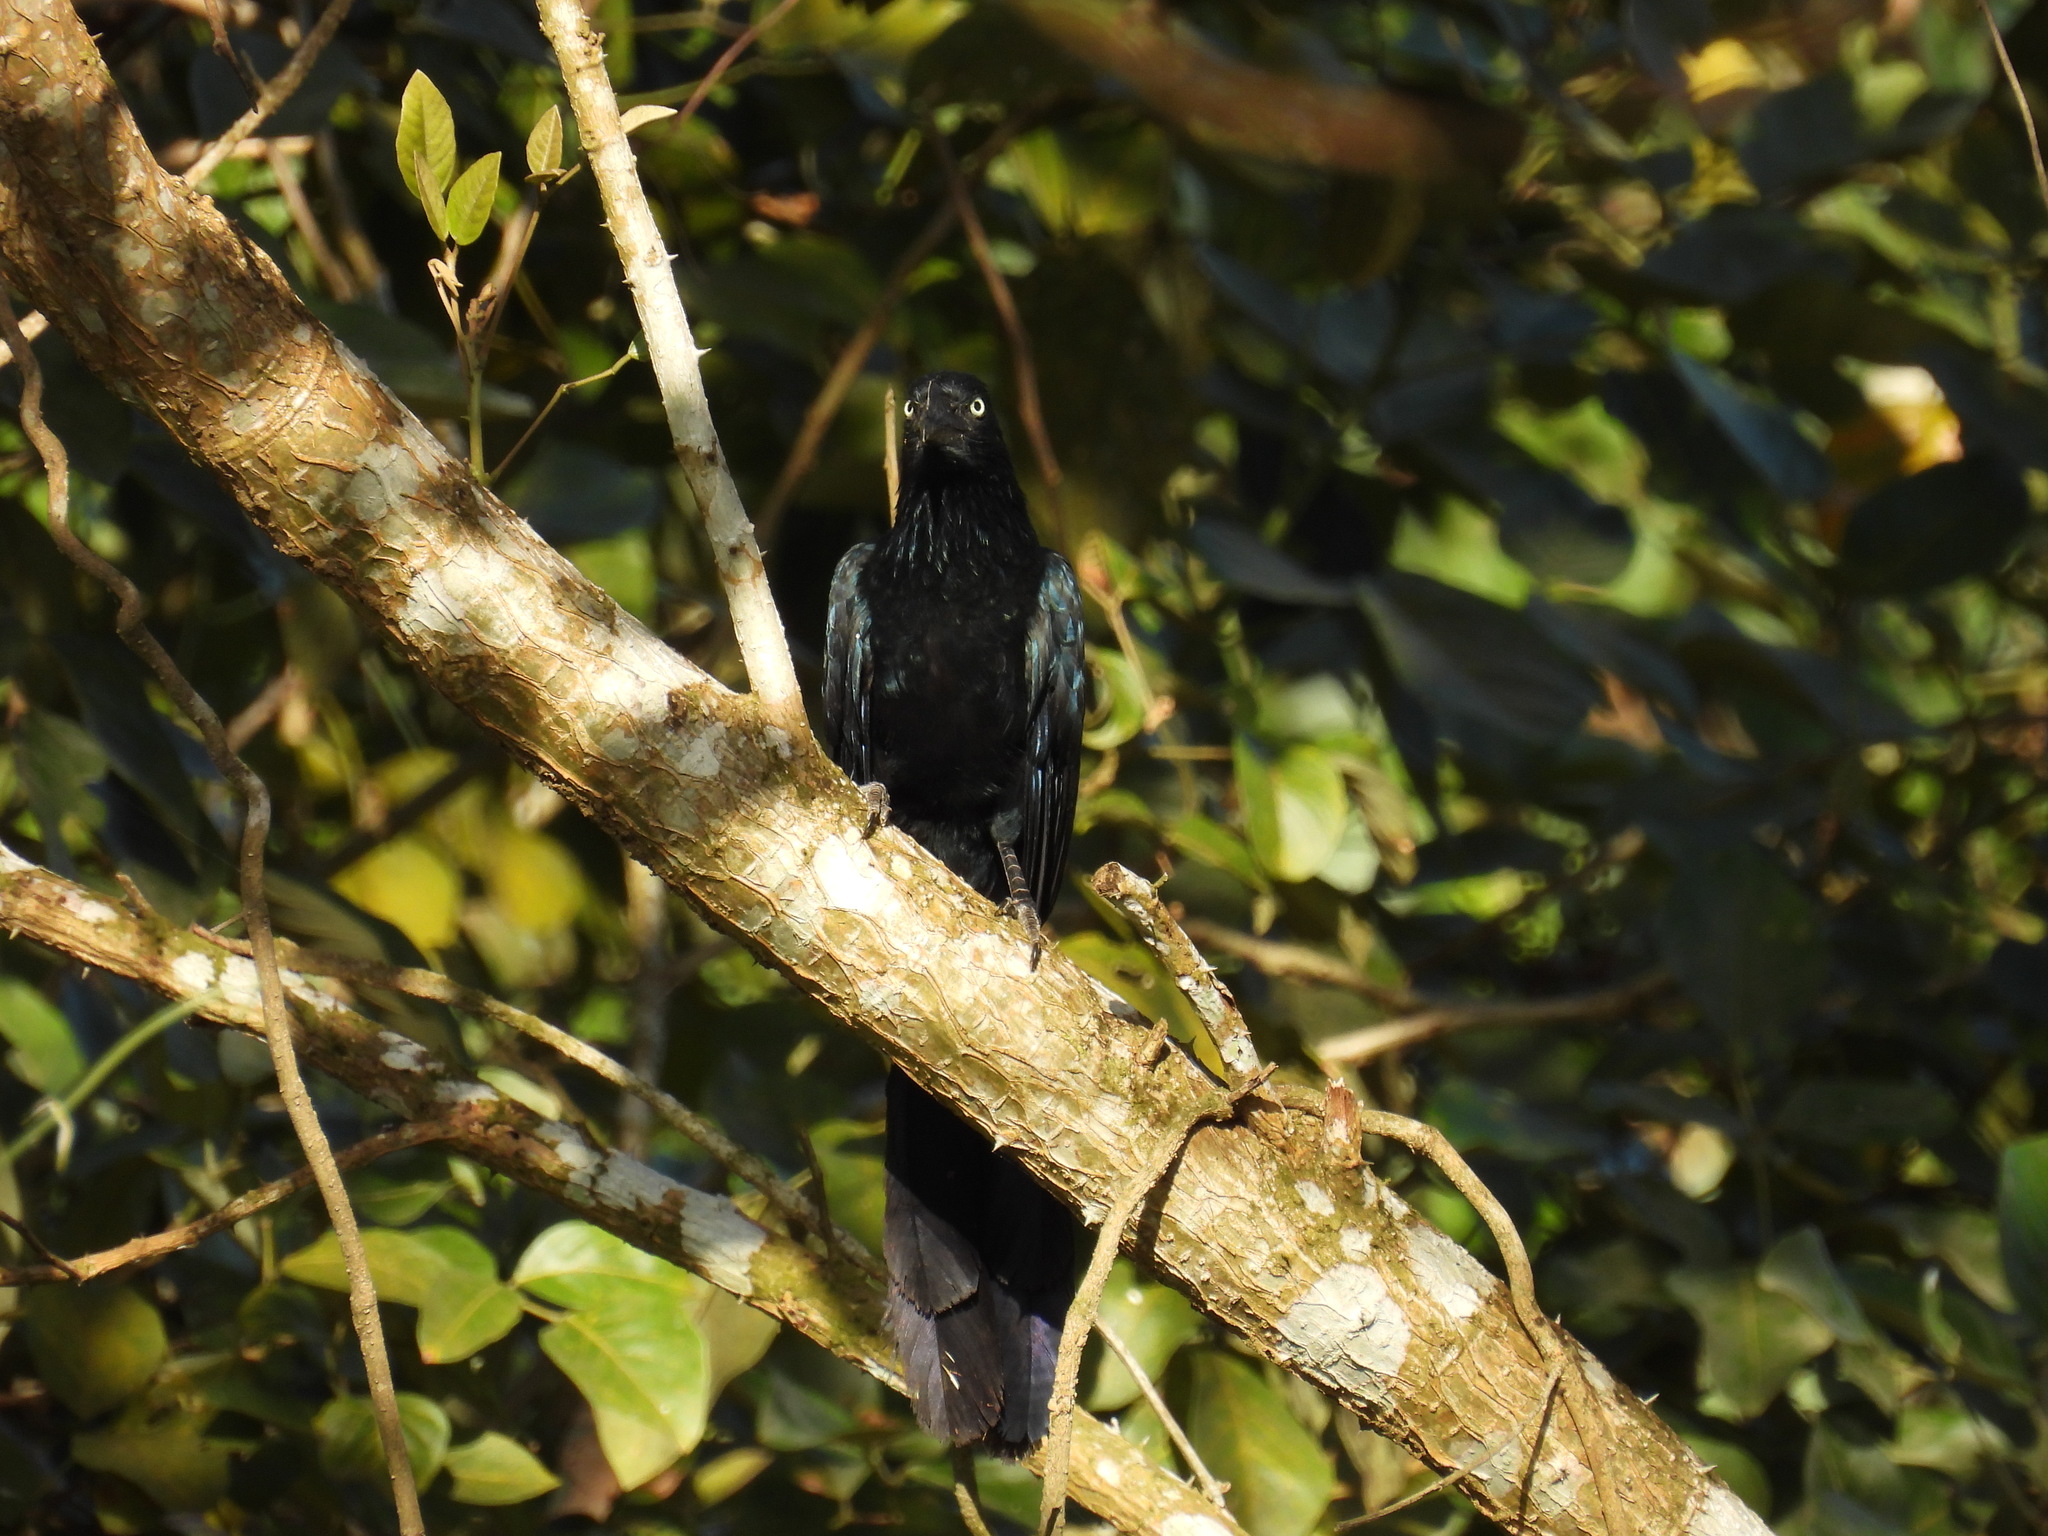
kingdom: Animalia
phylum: Chordata
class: Aves
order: Cuculiformes
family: Cuculidae
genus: Crotophaga
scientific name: Crotophaga major
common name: Greater ani
